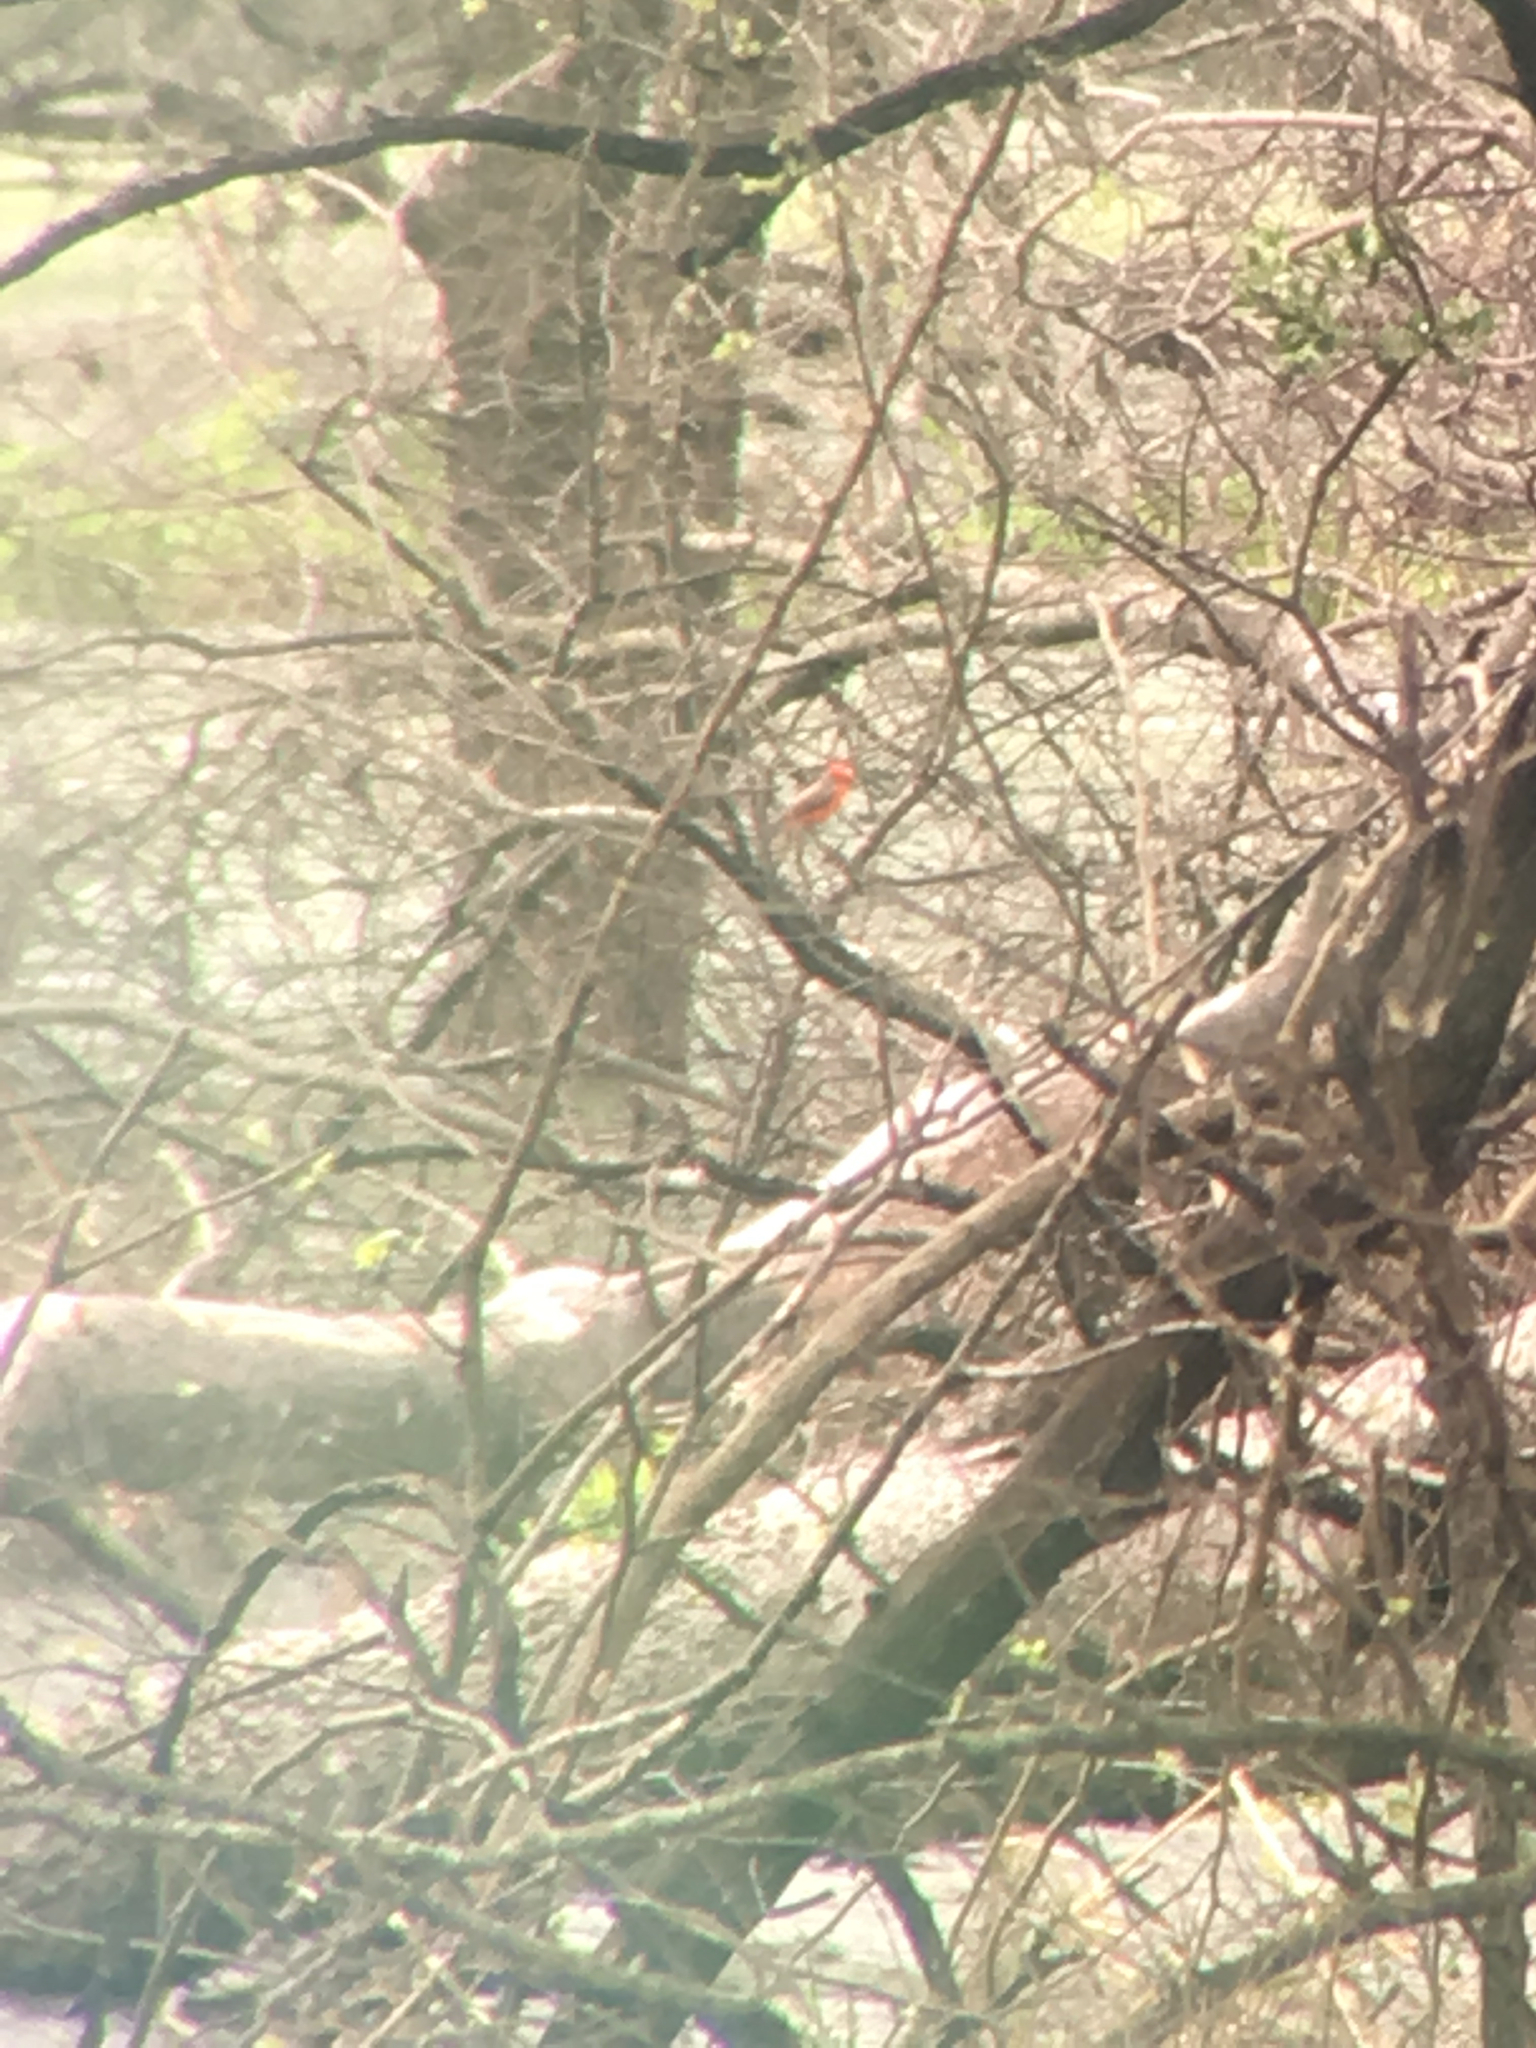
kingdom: Animalia
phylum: Chordata
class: Aves
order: Passeriformes
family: Tyrannidae
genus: Pyrocephalus
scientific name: Pyrocephalus rubinus
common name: Vermilion flycatcher
